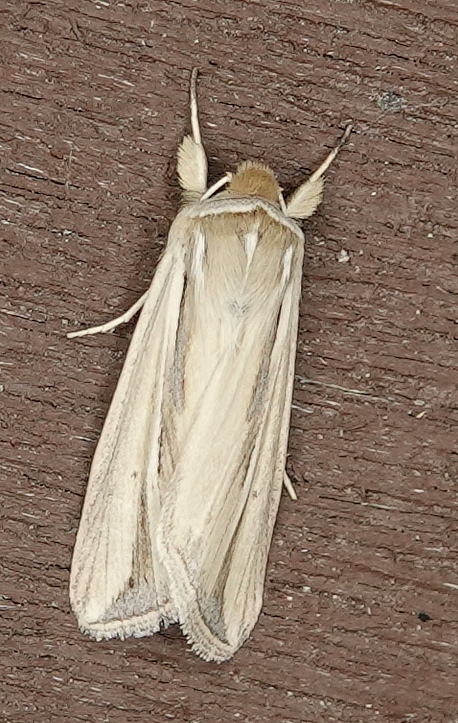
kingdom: Animalia
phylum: Arthropoda
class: Insecta
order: Lepidoptera
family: Noctuidae
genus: Dargida
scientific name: Dargida diffusa
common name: Wheat head armyworm
